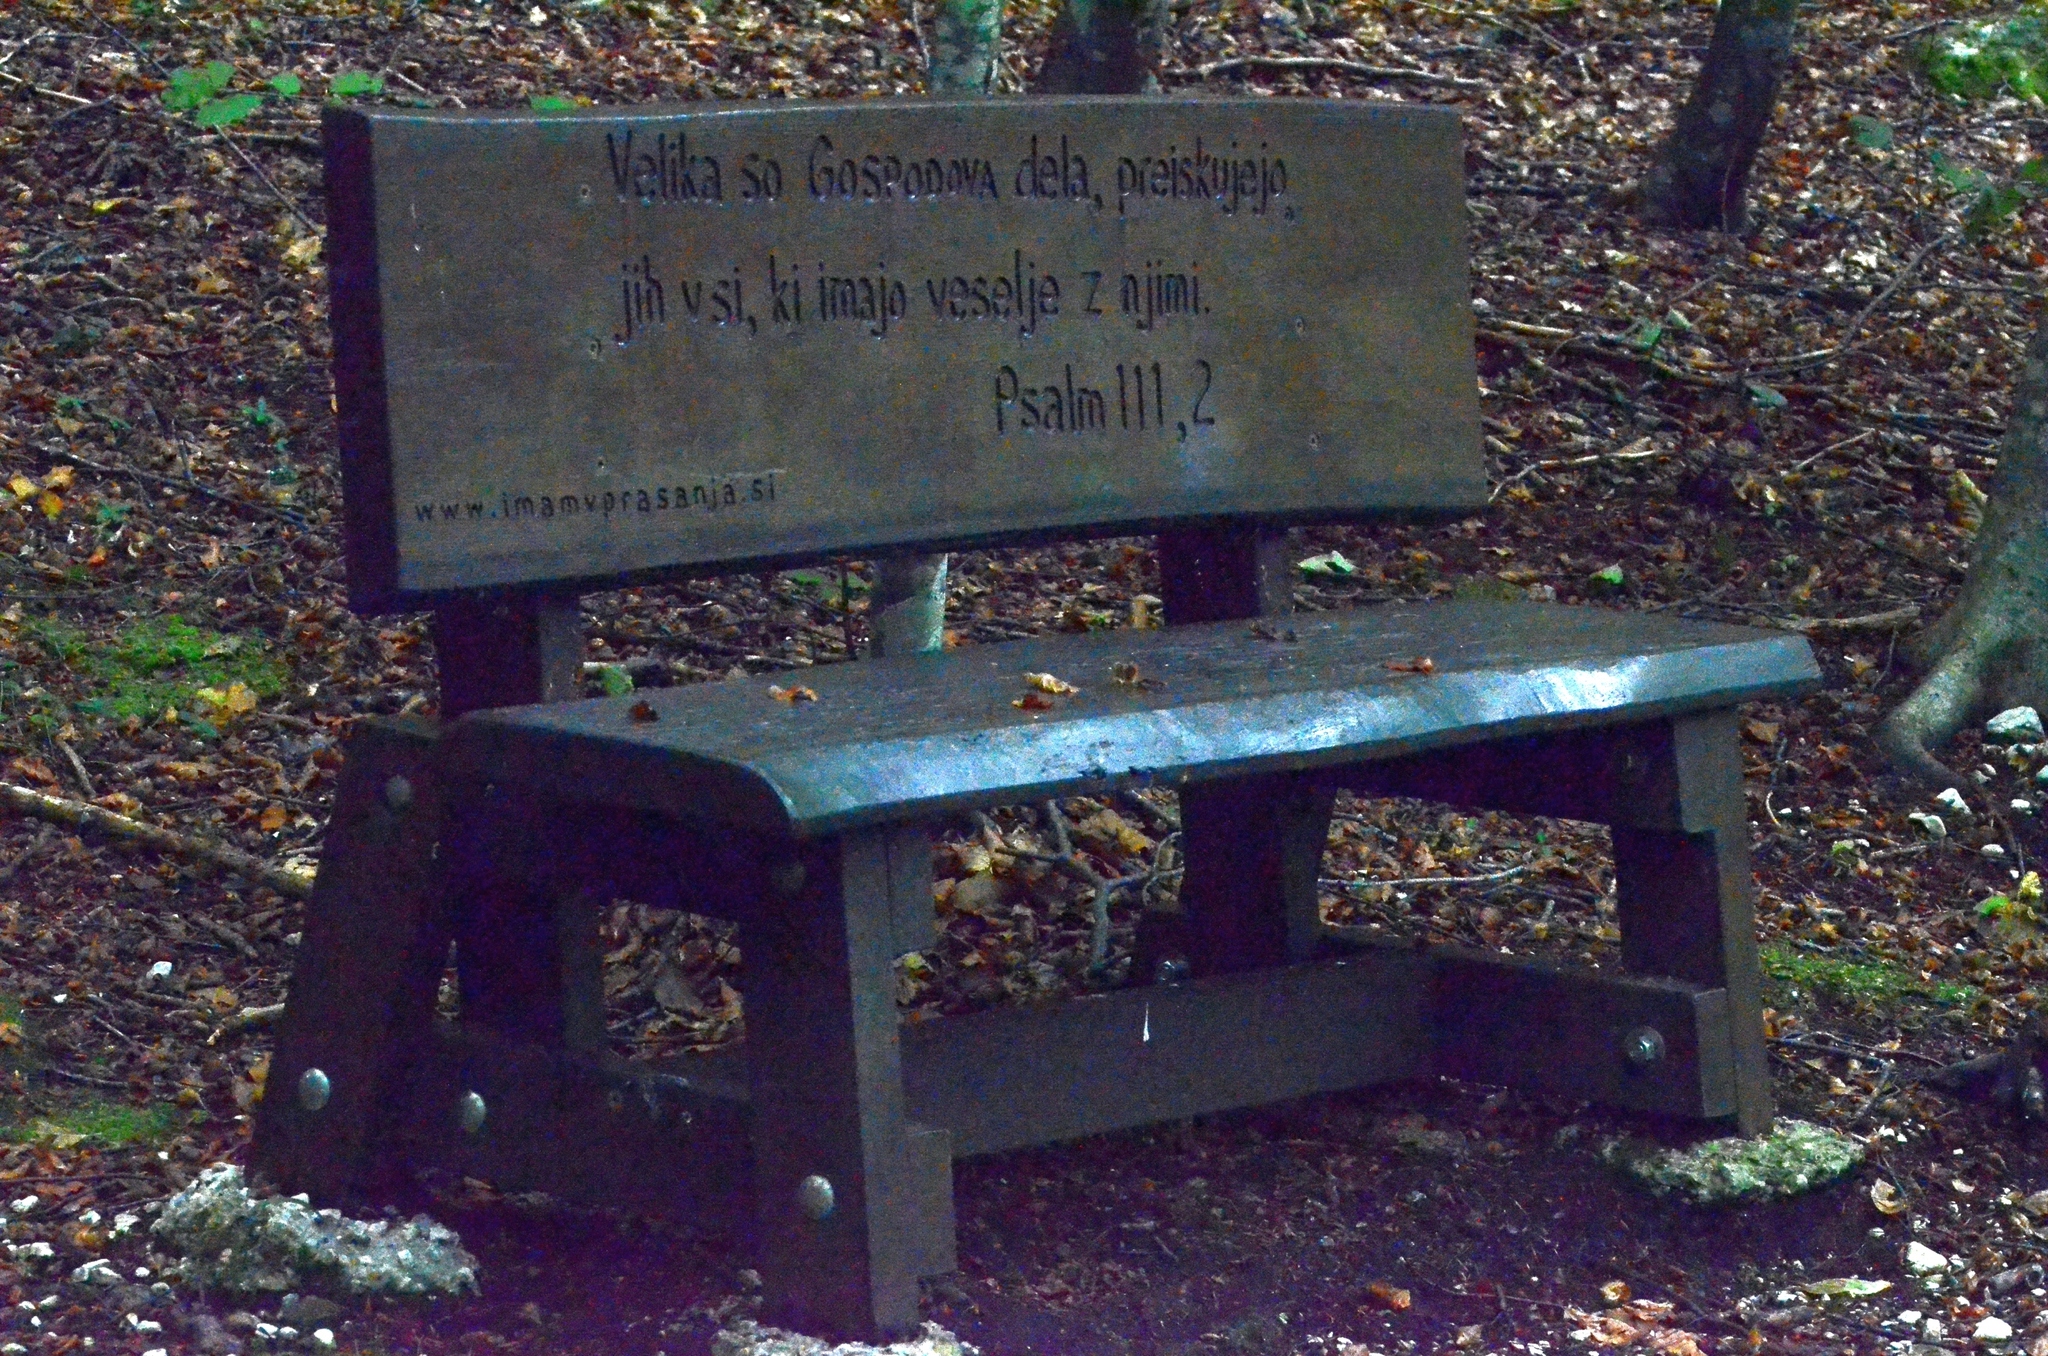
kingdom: Animalia
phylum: Chordata
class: Squamata
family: Colubridae
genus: Natrix
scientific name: Natrix tessellata
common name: Dice snake
